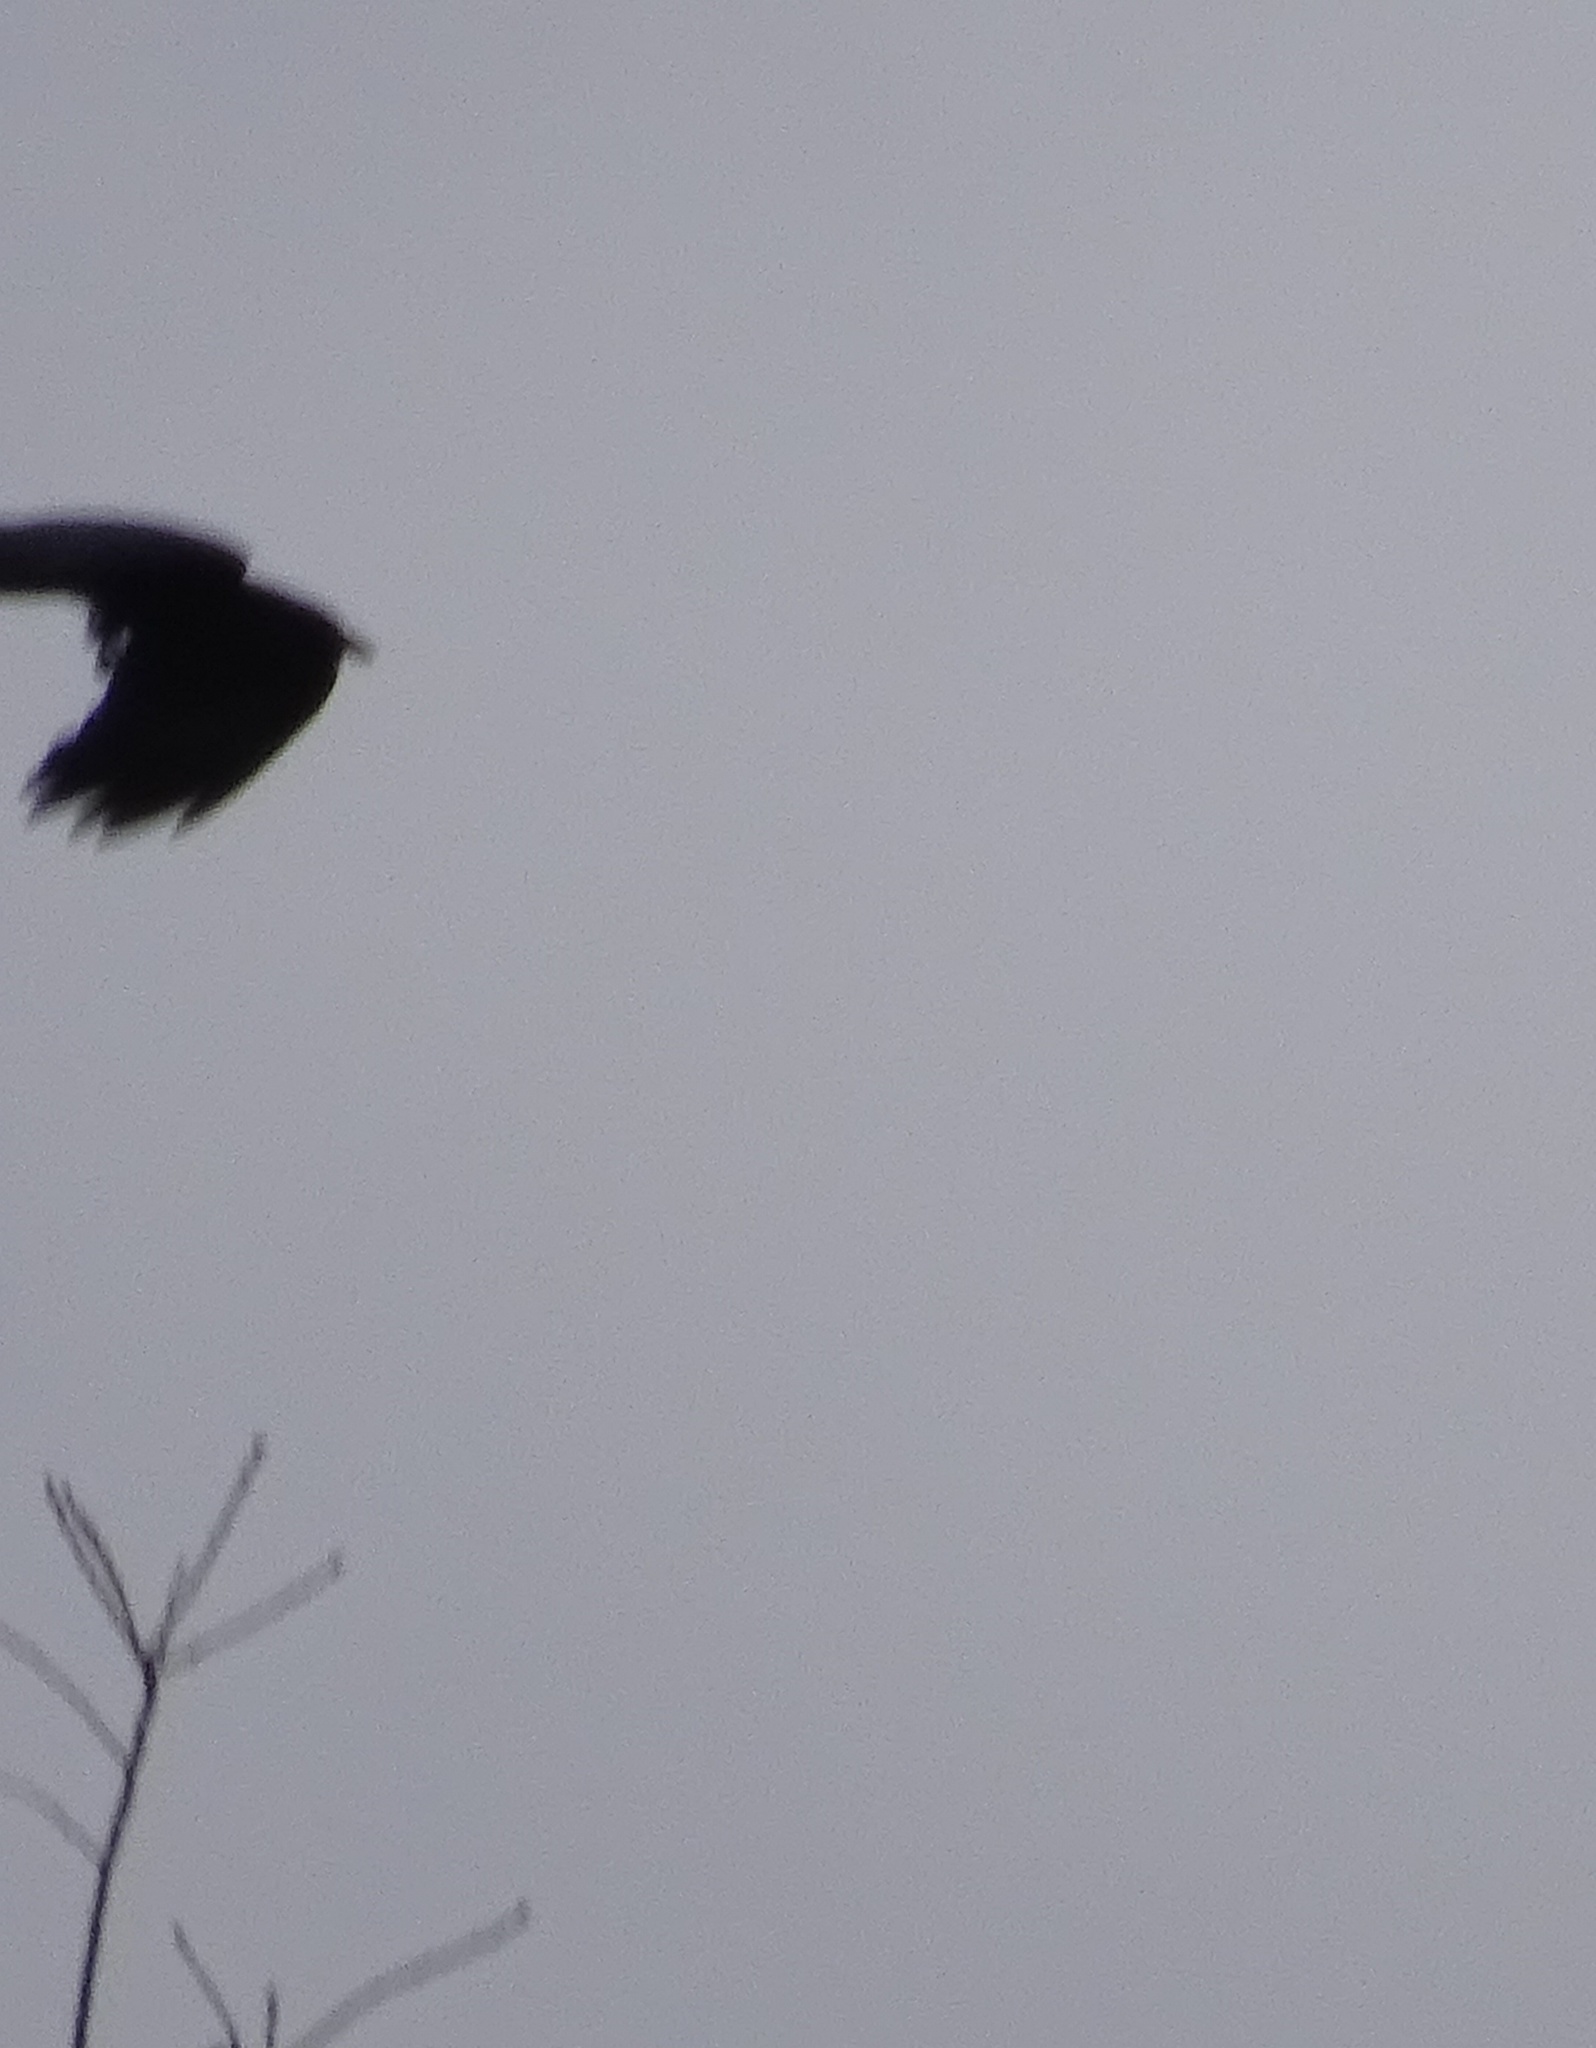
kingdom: Animalia
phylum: Chordata
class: Aves
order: Passeriformes
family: Corvidae
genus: Corvus
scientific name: Corvus brachyrhynchos
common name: American crow
